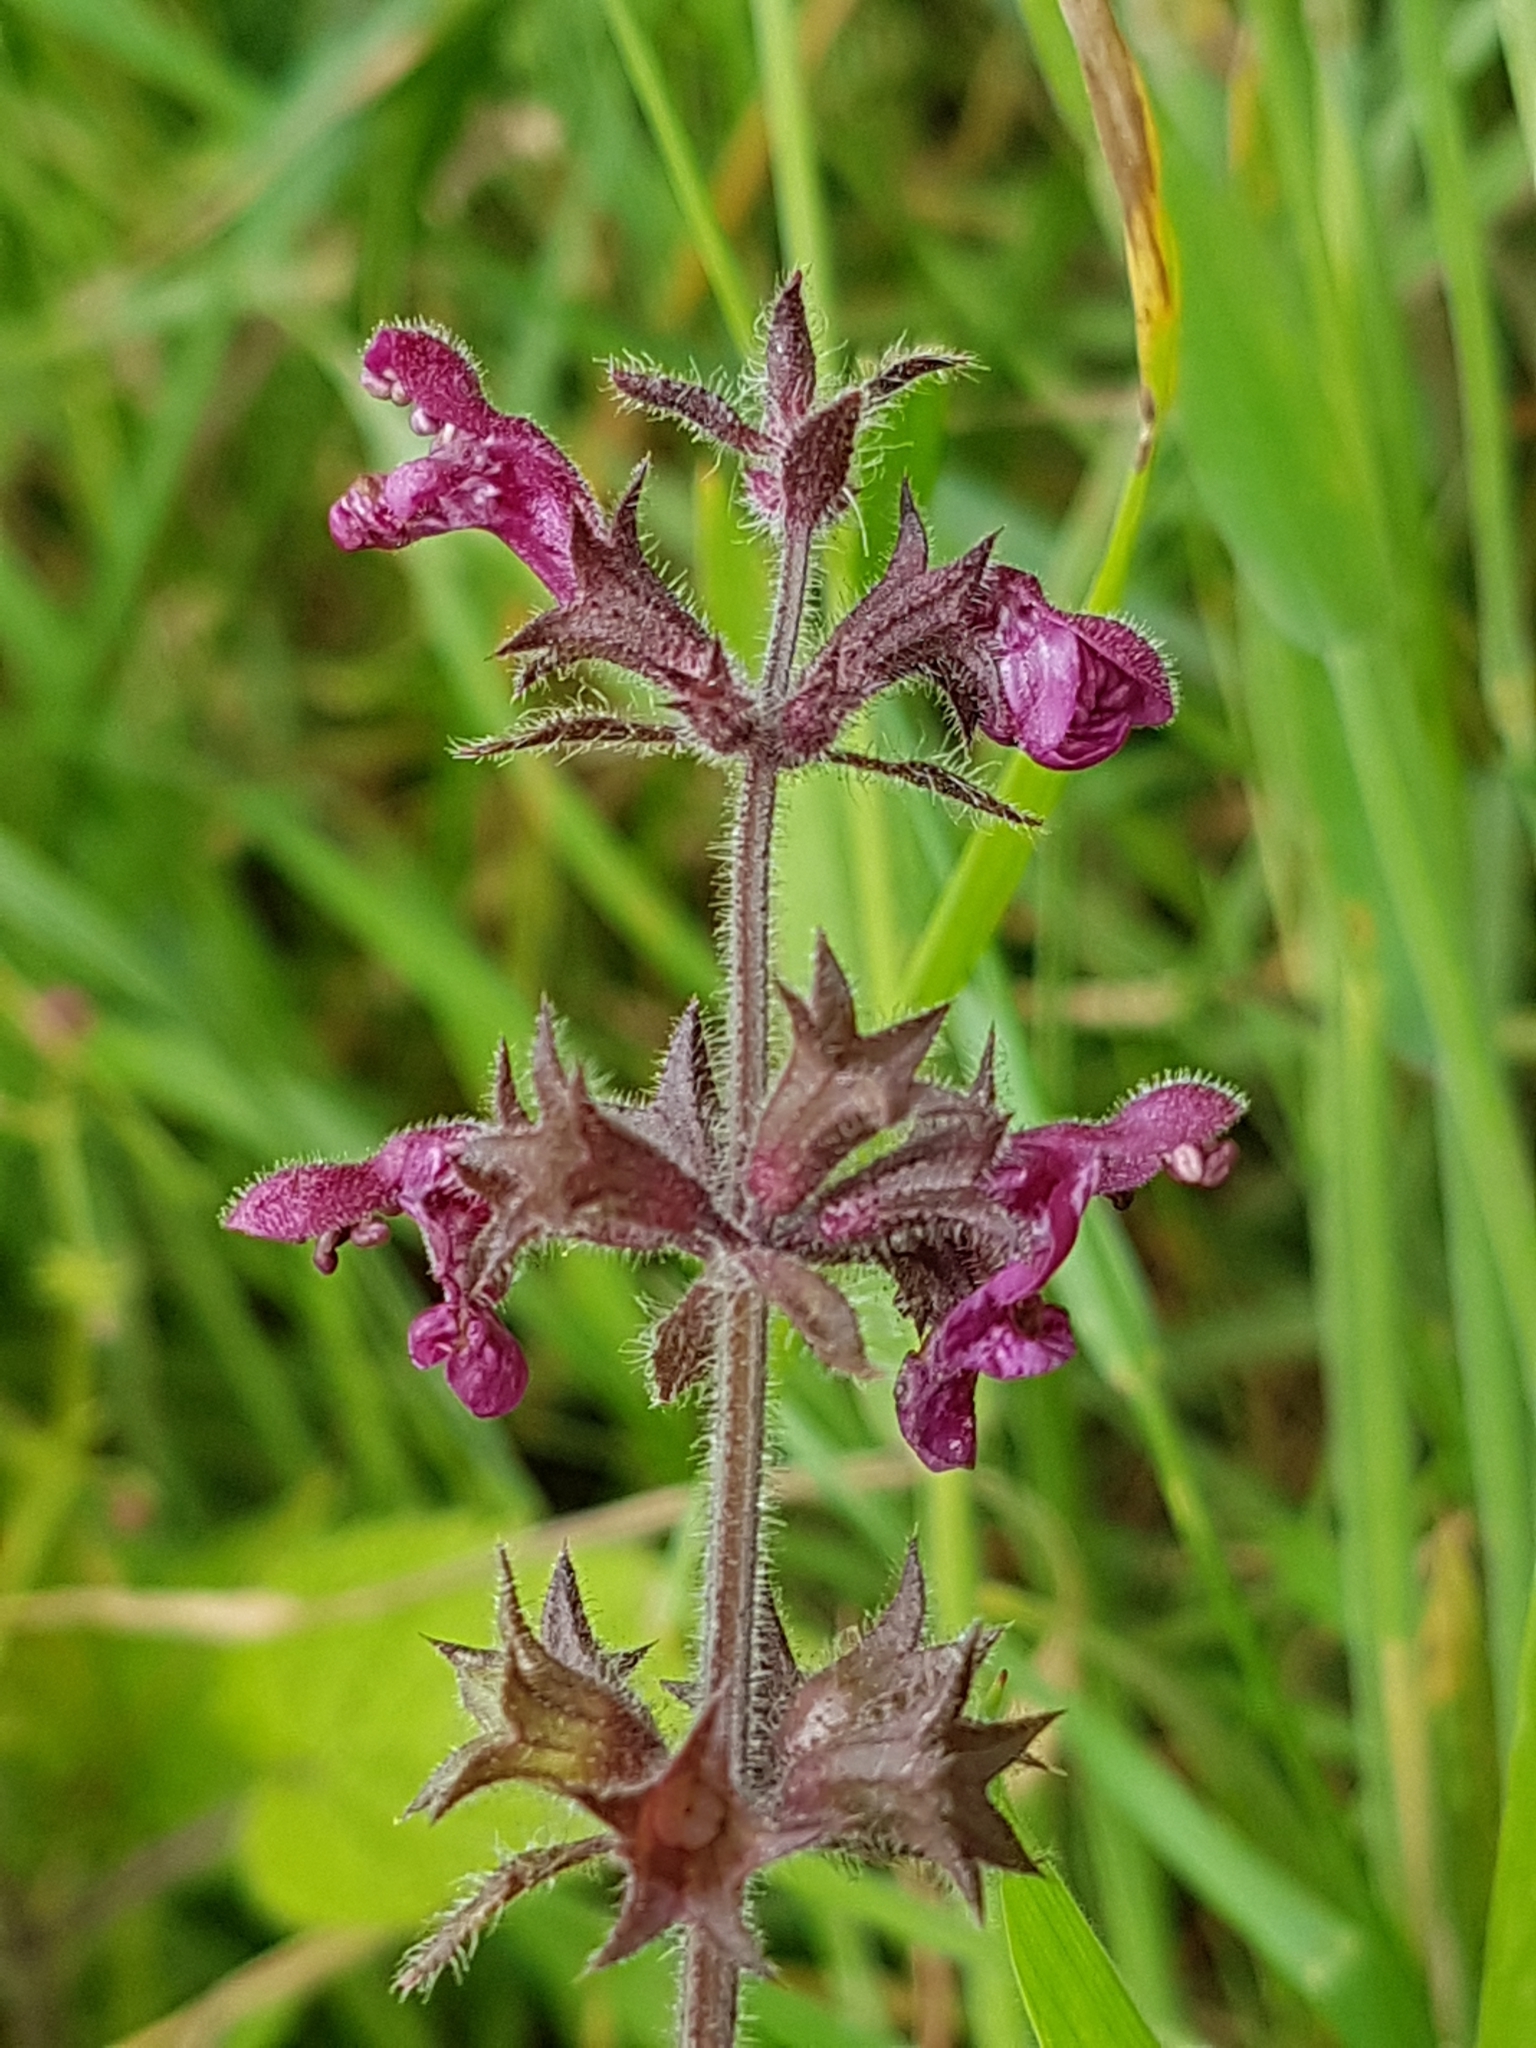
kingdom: Plantae
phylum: Tracheophyta
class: Magnoliopsida
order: Lamiales
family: Lamiaceae
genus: Stachys
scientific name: Stachys sylvatica
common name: Hedge woundwort
